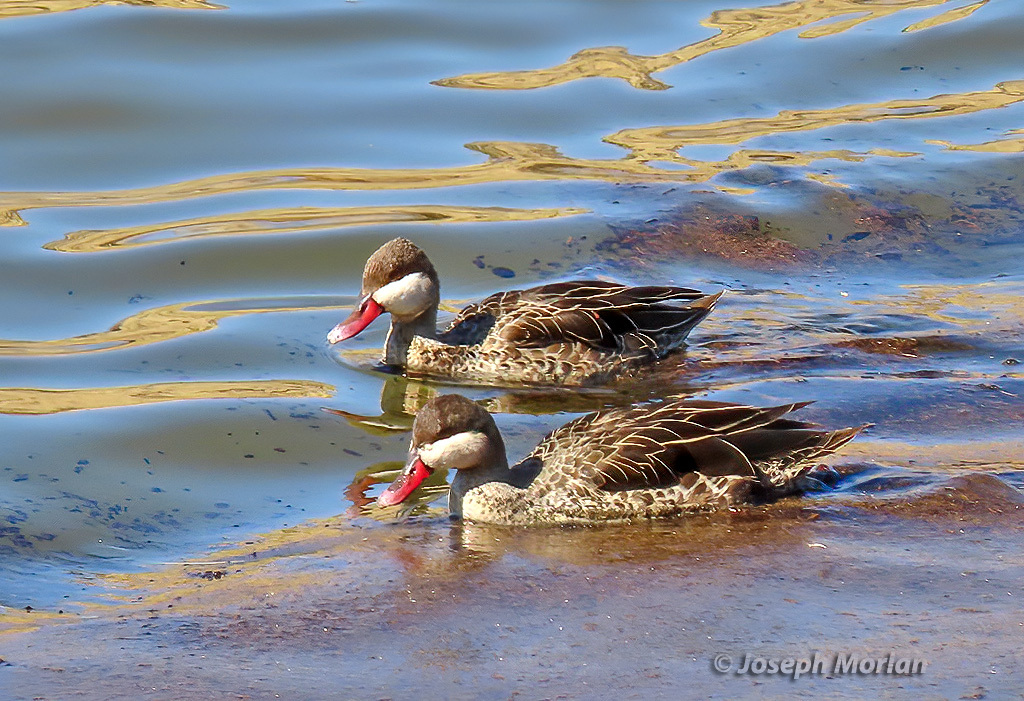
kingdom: Animalia
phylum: Chordata
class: Aves
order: Anseriformes
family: Anatidae
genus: Anas
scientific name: Anas erythrorhyncha
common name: Red-billed teal
